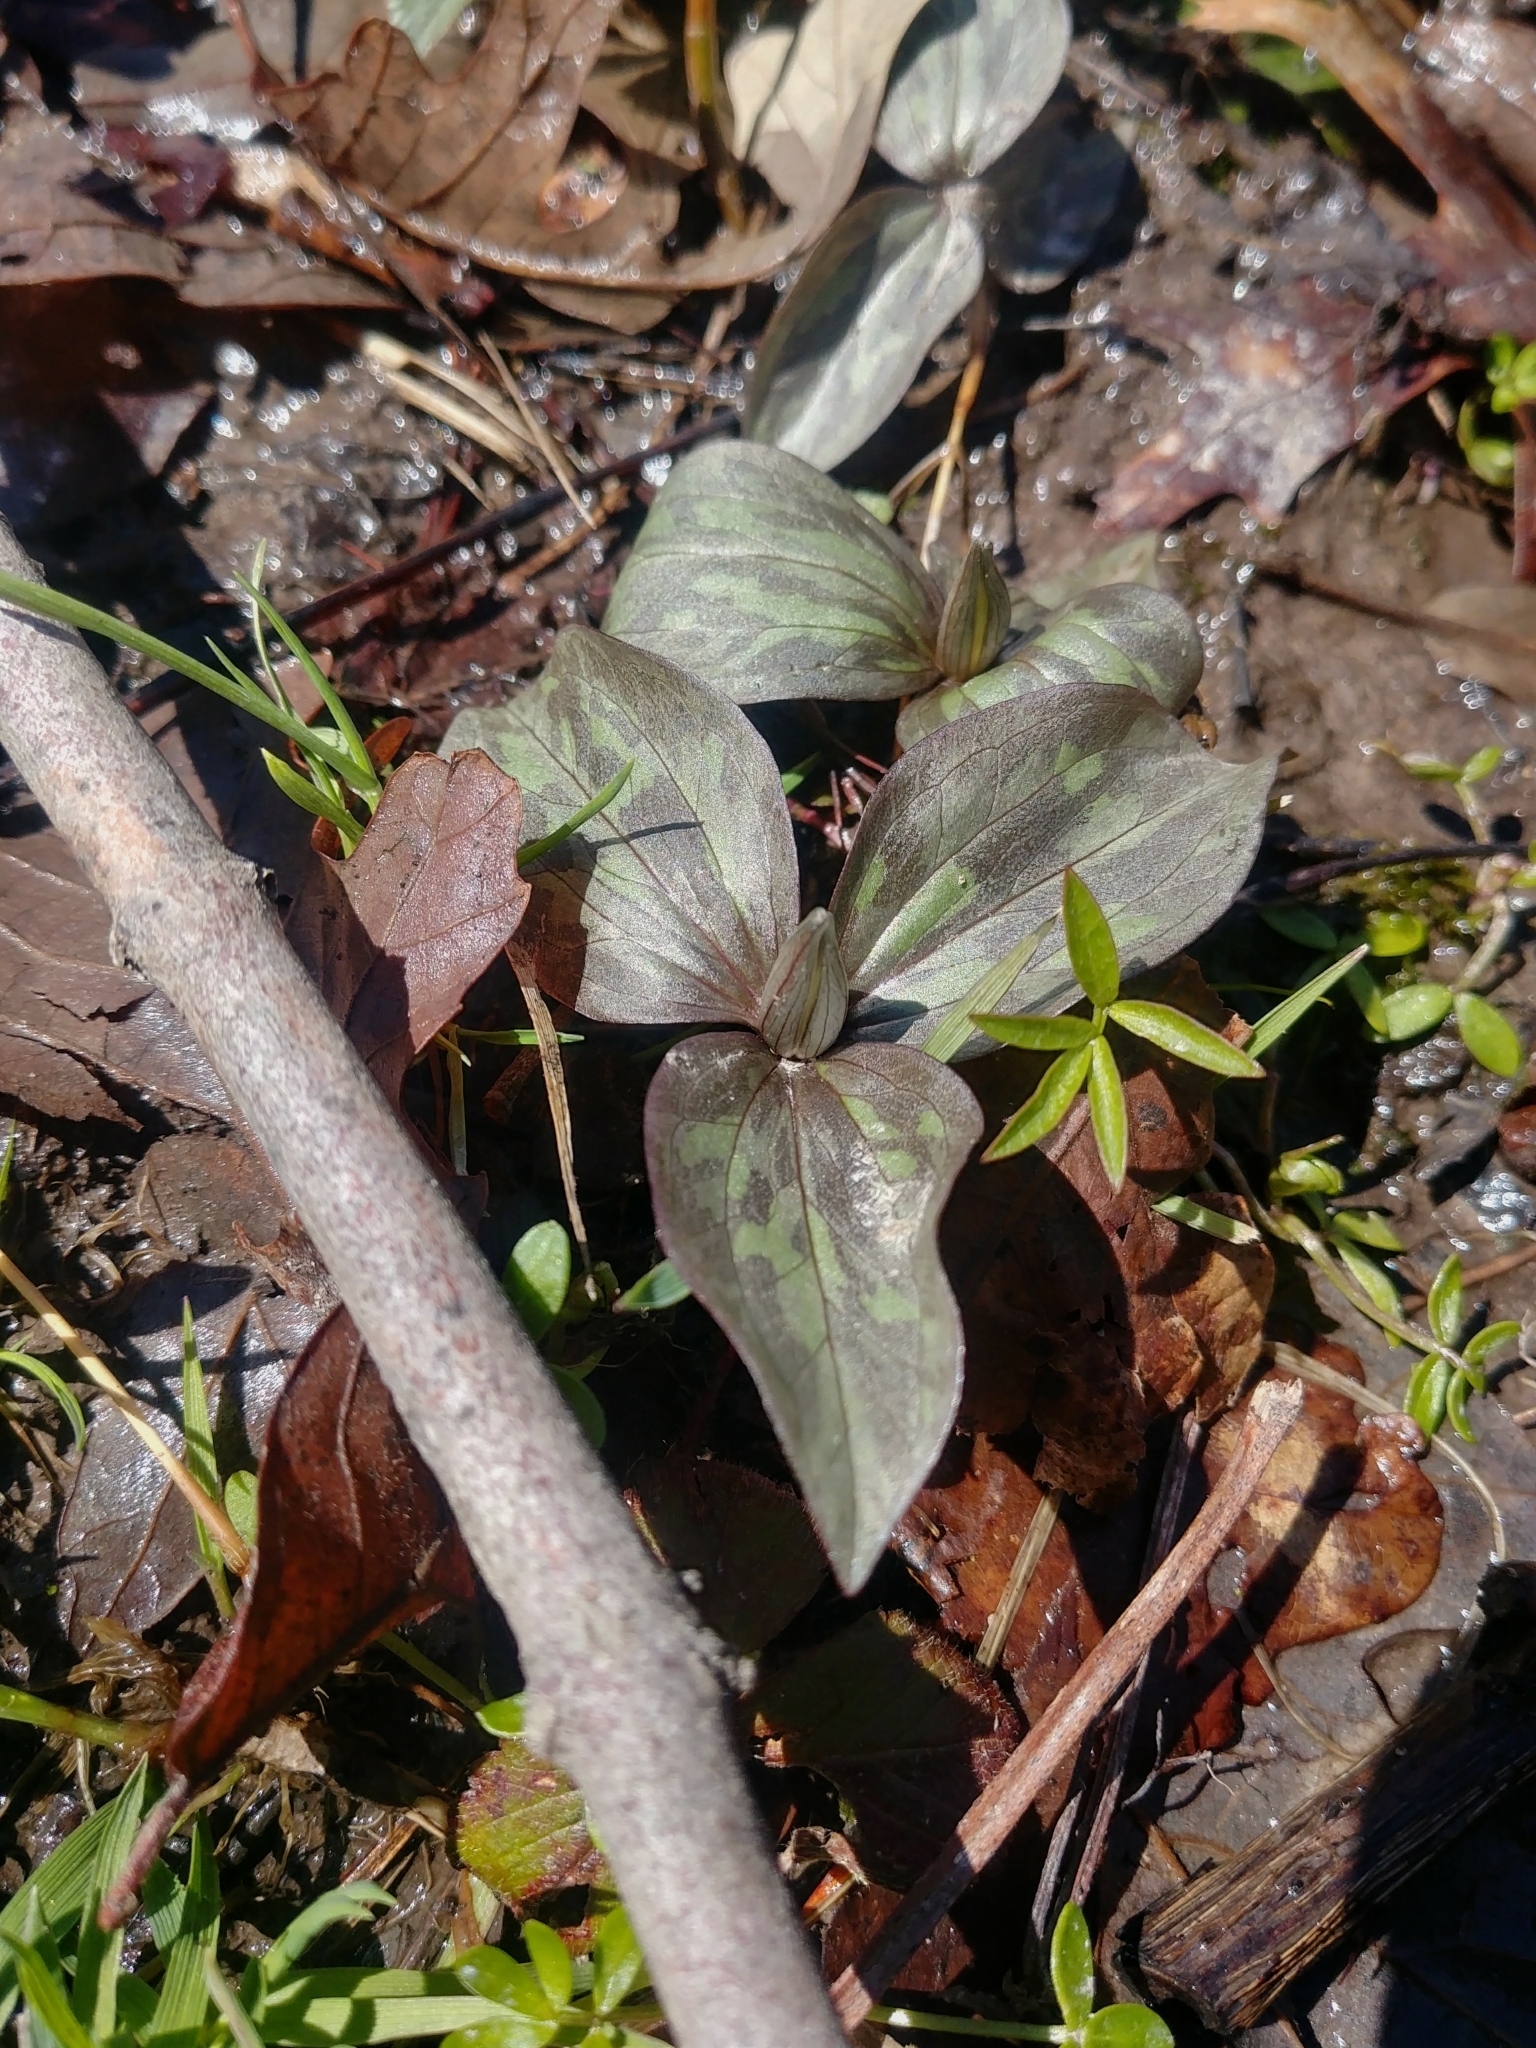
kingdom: Plantae
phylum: Tracheophyta
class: Liliopsida
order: Liliales
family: Melanthiaceae
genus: Trillium
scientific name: Trillium recurvatum
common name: Bloody butcher
